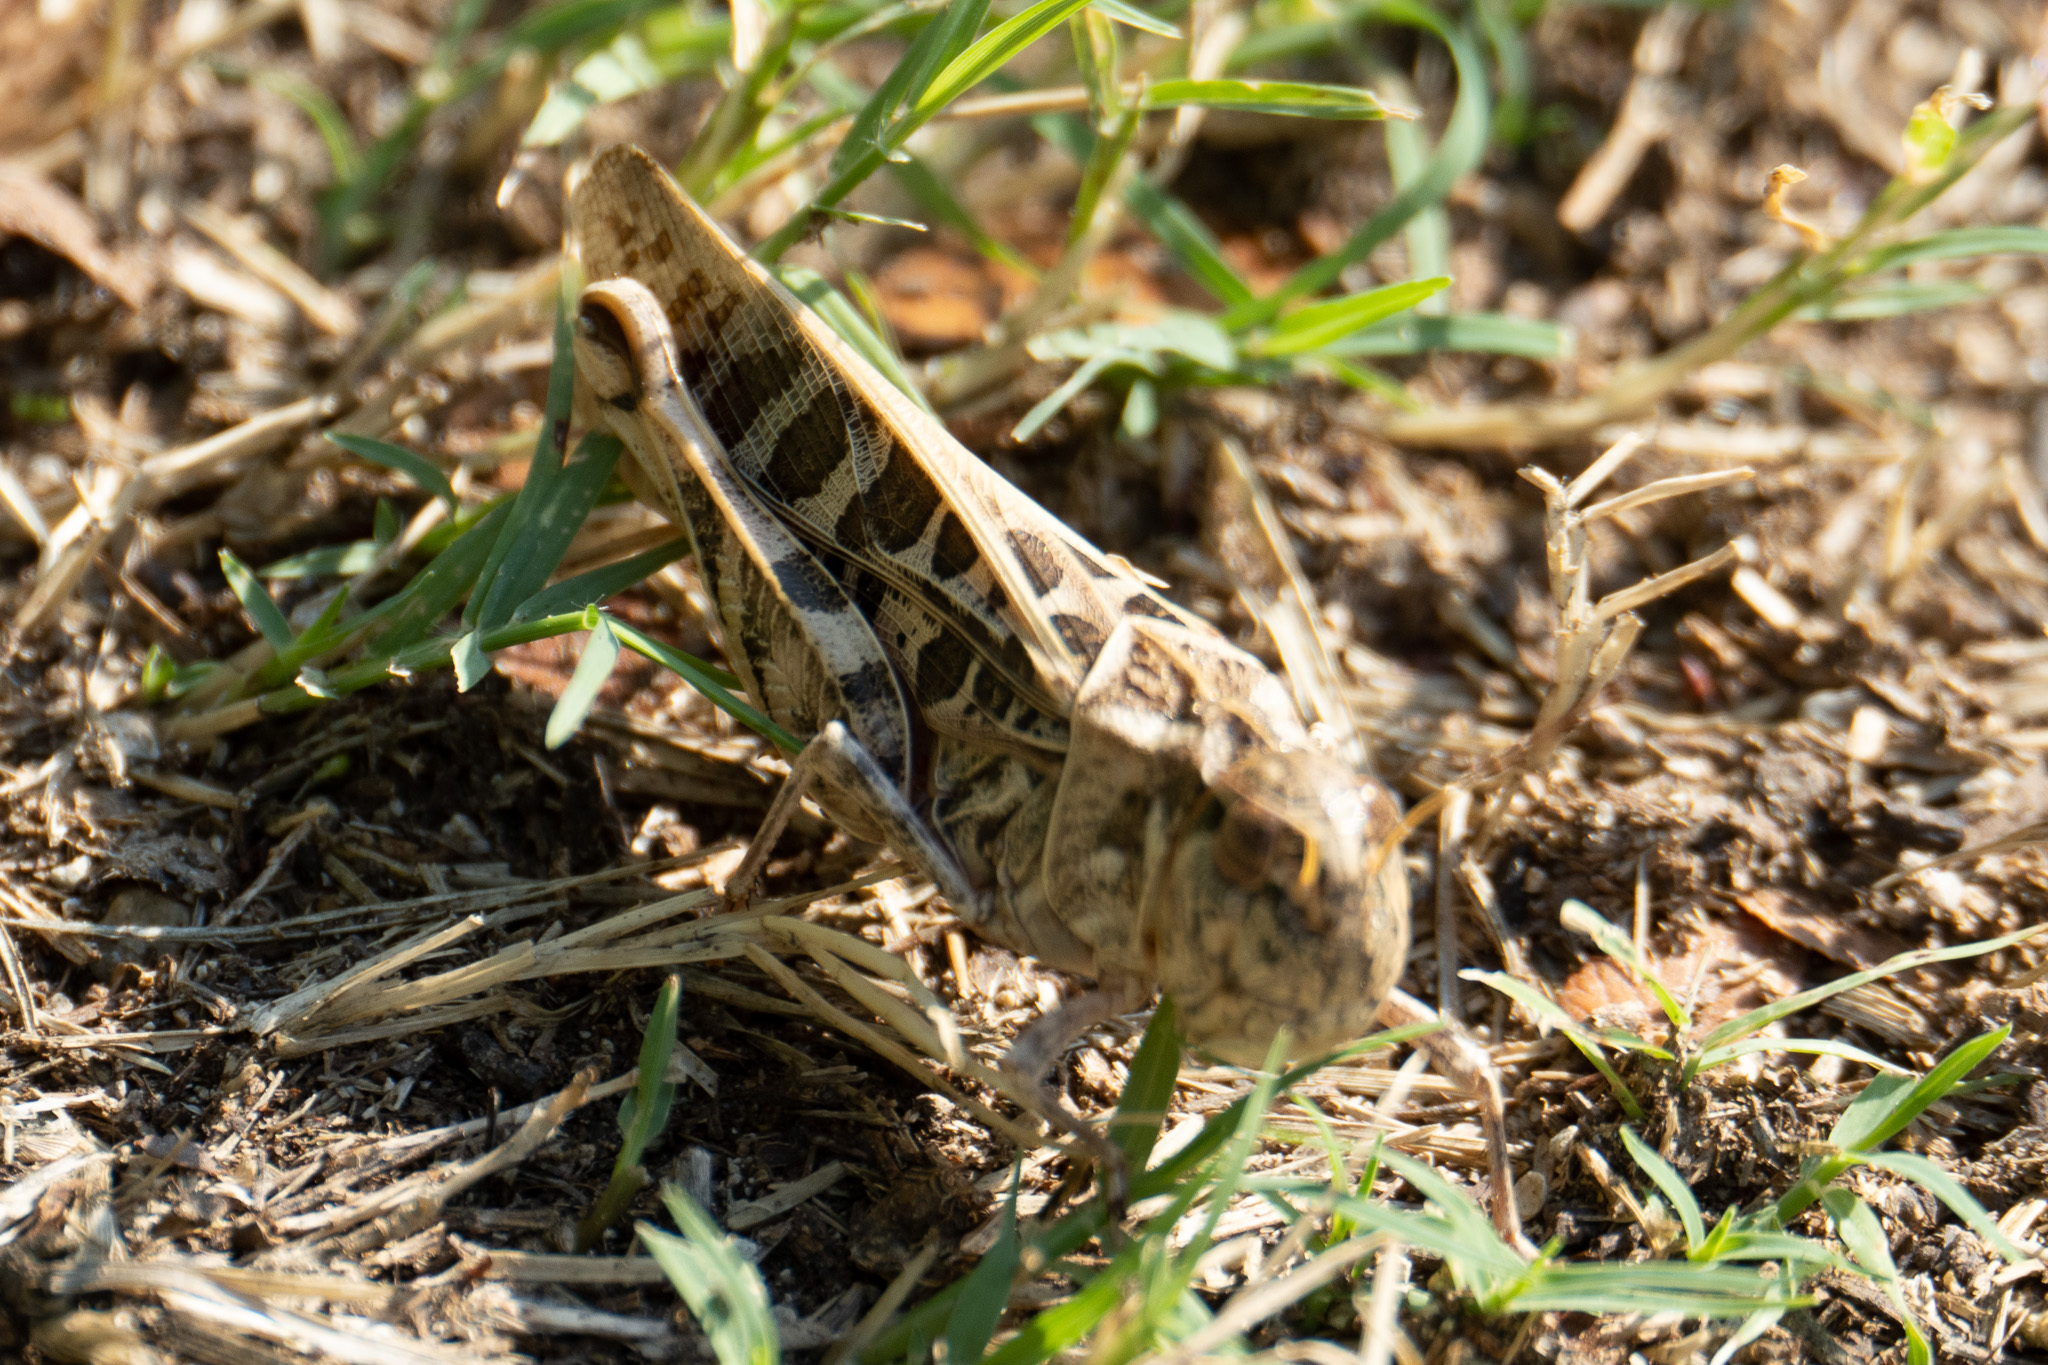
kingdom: Animalia
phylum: Arthropoda
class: Insecta
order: Orthoptera
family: Acrididae
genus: Hippiscus
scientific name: Hippiscus ocelote
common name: Wrinkled grasshopper
